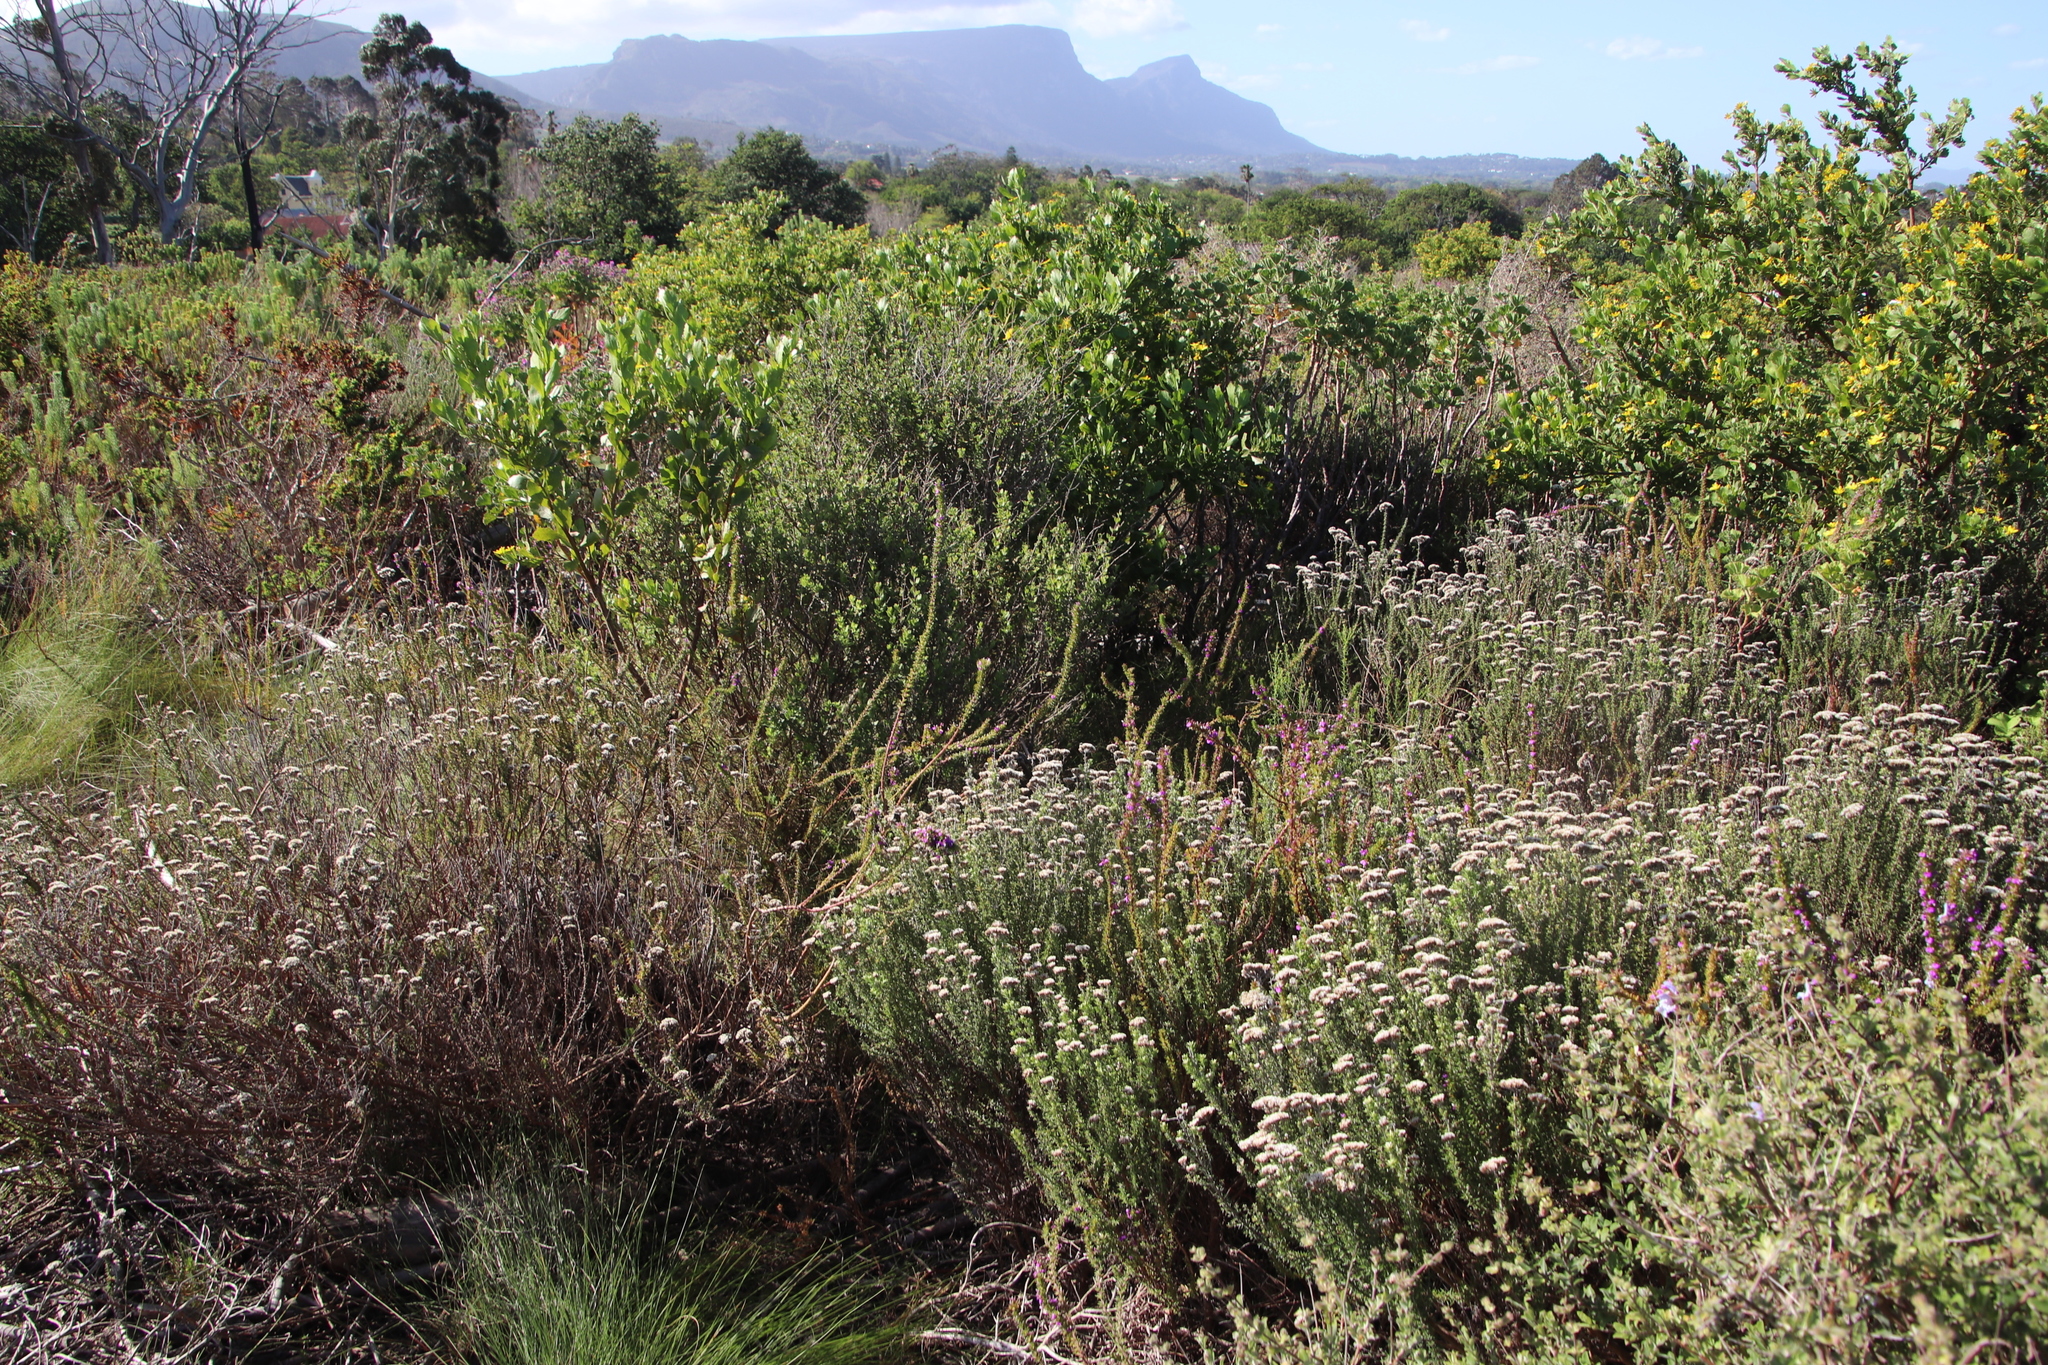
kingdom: Plantae
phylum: Tracheophyta
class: Magnoliopsida
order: Asterales
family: Asteraceae
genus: Metalasia
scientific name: Metalasia densa
